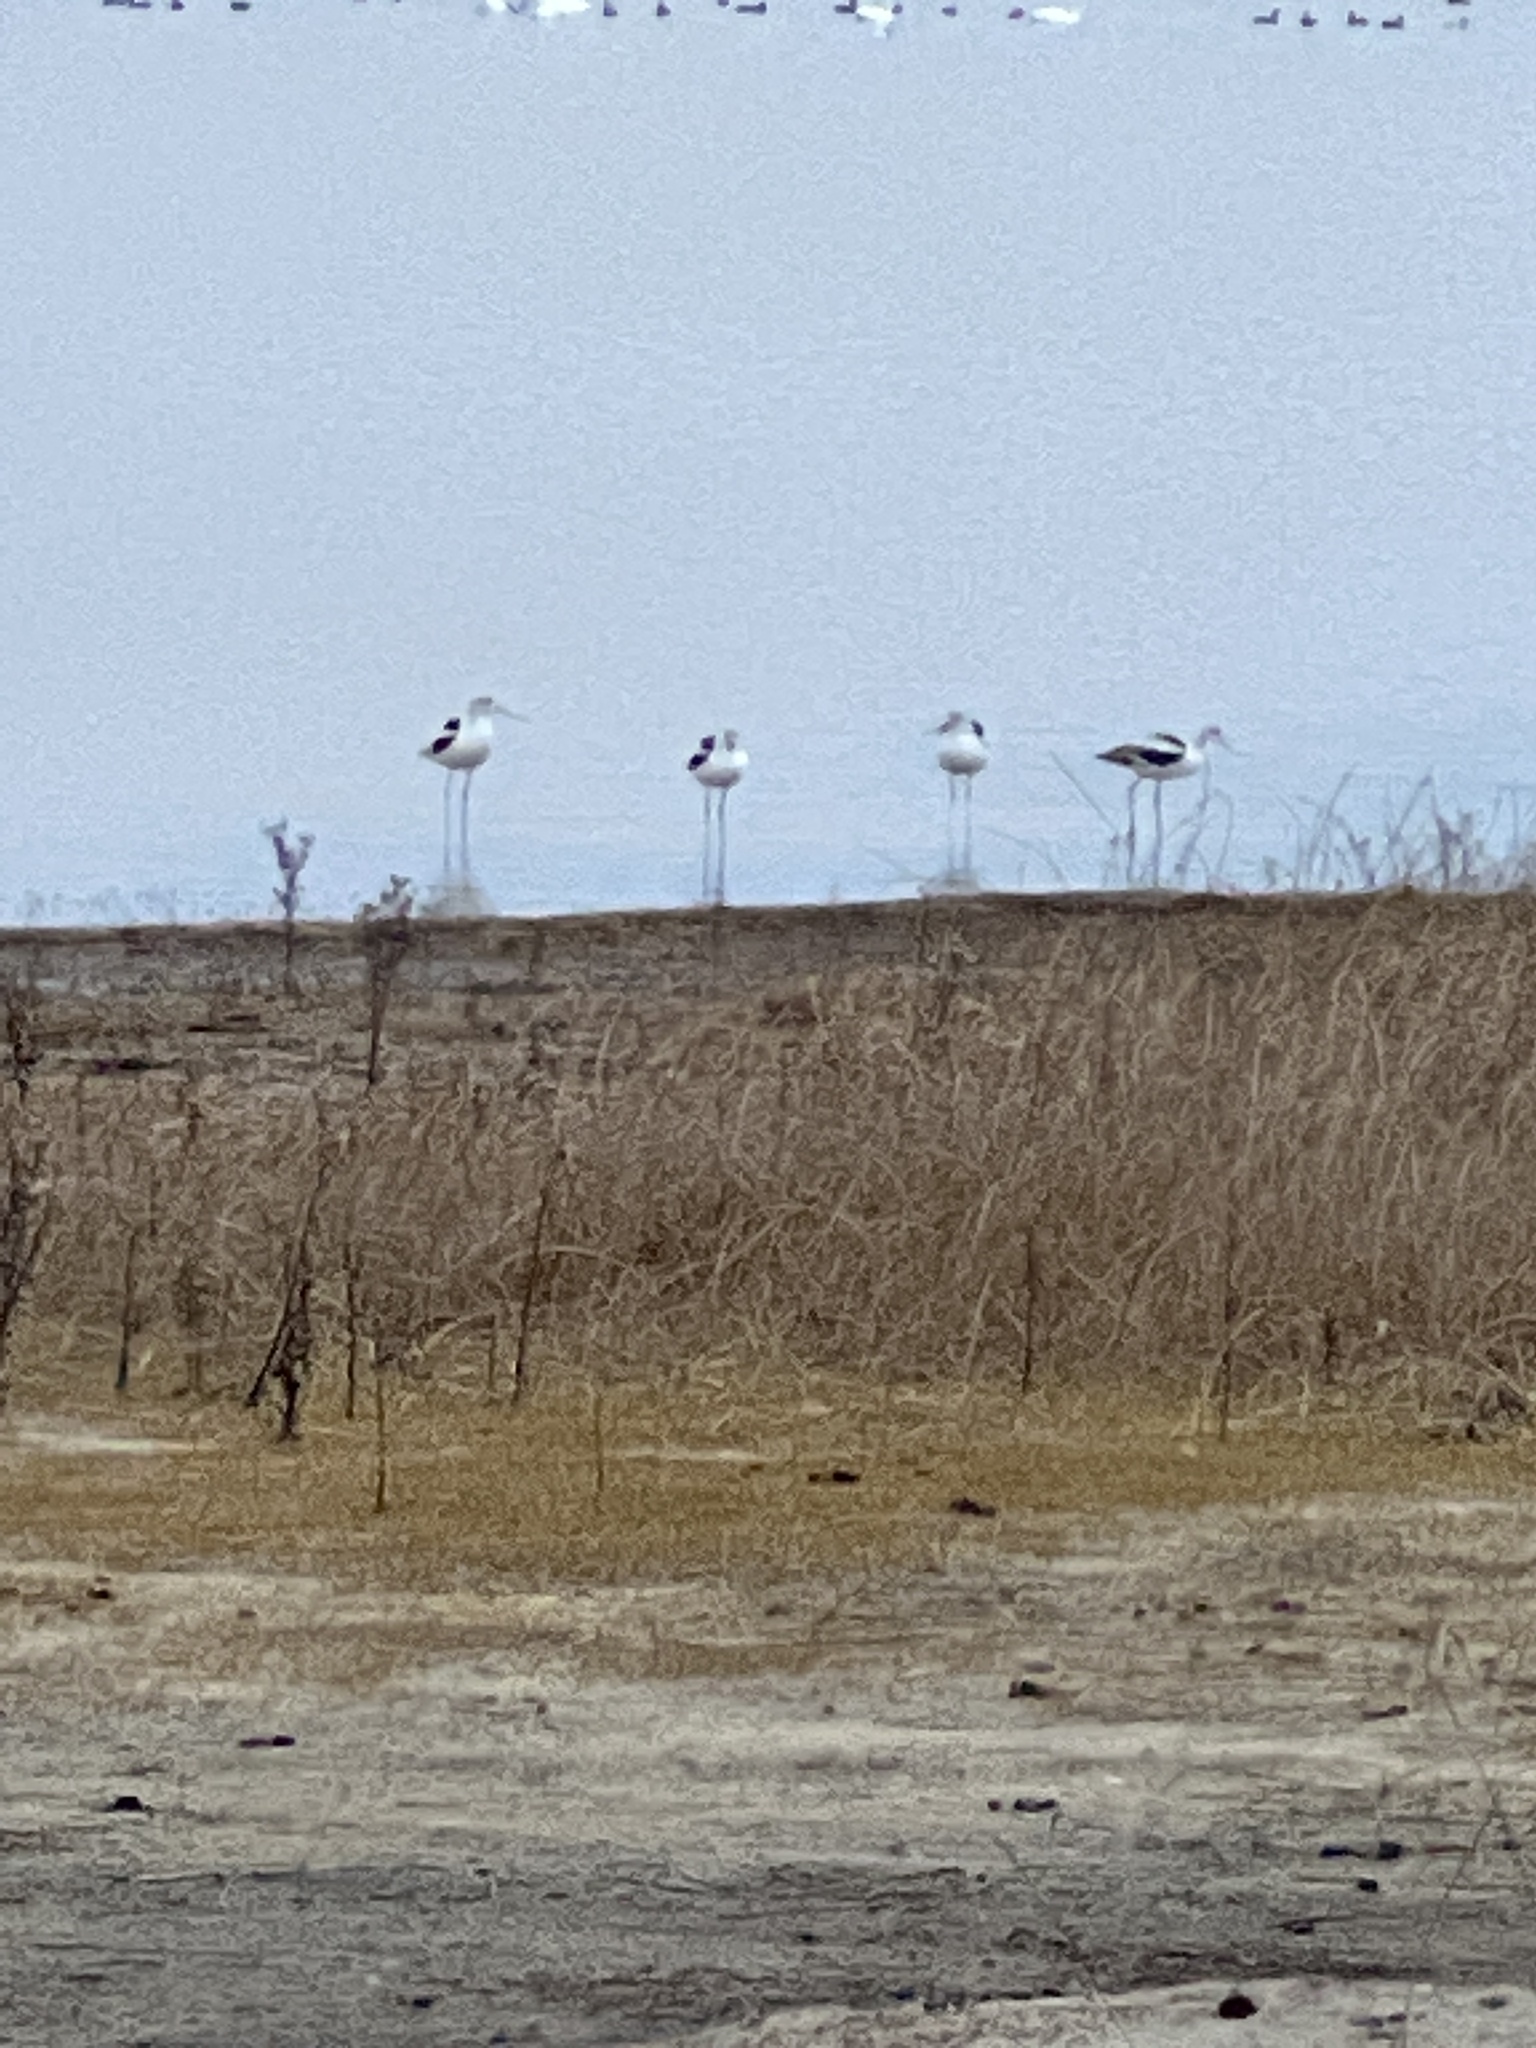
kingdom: Animalia
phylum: Chordata
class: Aves
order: Charadriiformes
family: Recurvirostridae
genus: Recurvirostra
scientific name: Recurvirostra americana
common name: American avocet
